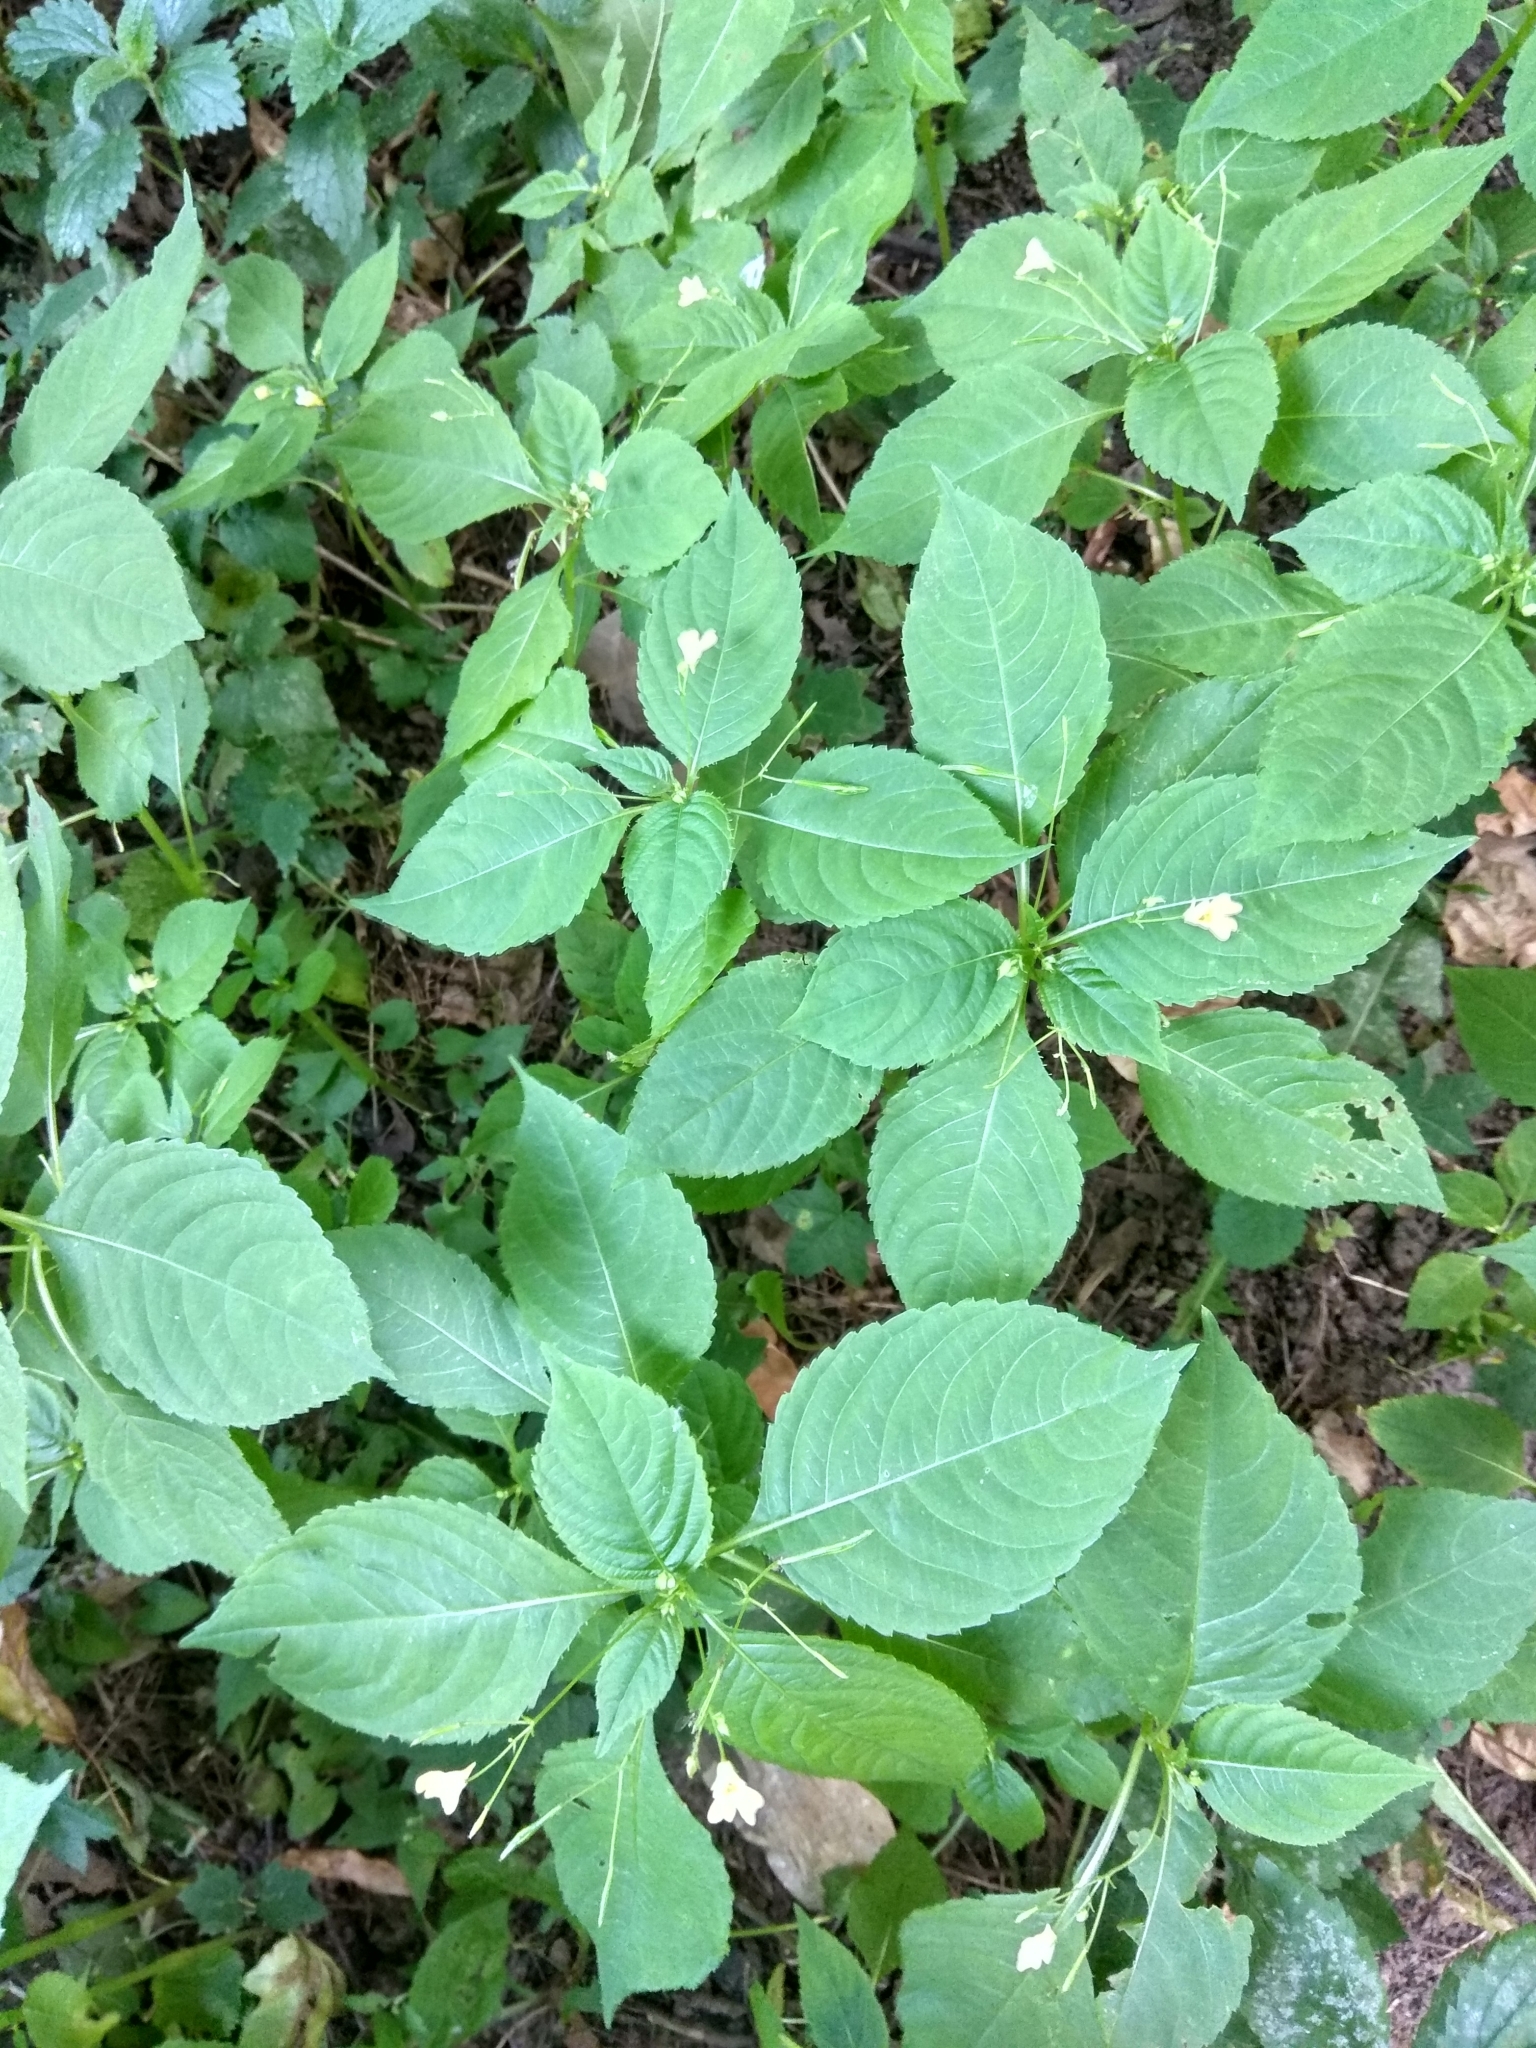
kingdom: Plantae
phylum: Tracheophyta
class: Magnoliopsida
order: Ericales
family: Balsaminaceae
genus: Impatiens
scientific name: Impatiens parviflora
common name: Small balsam
